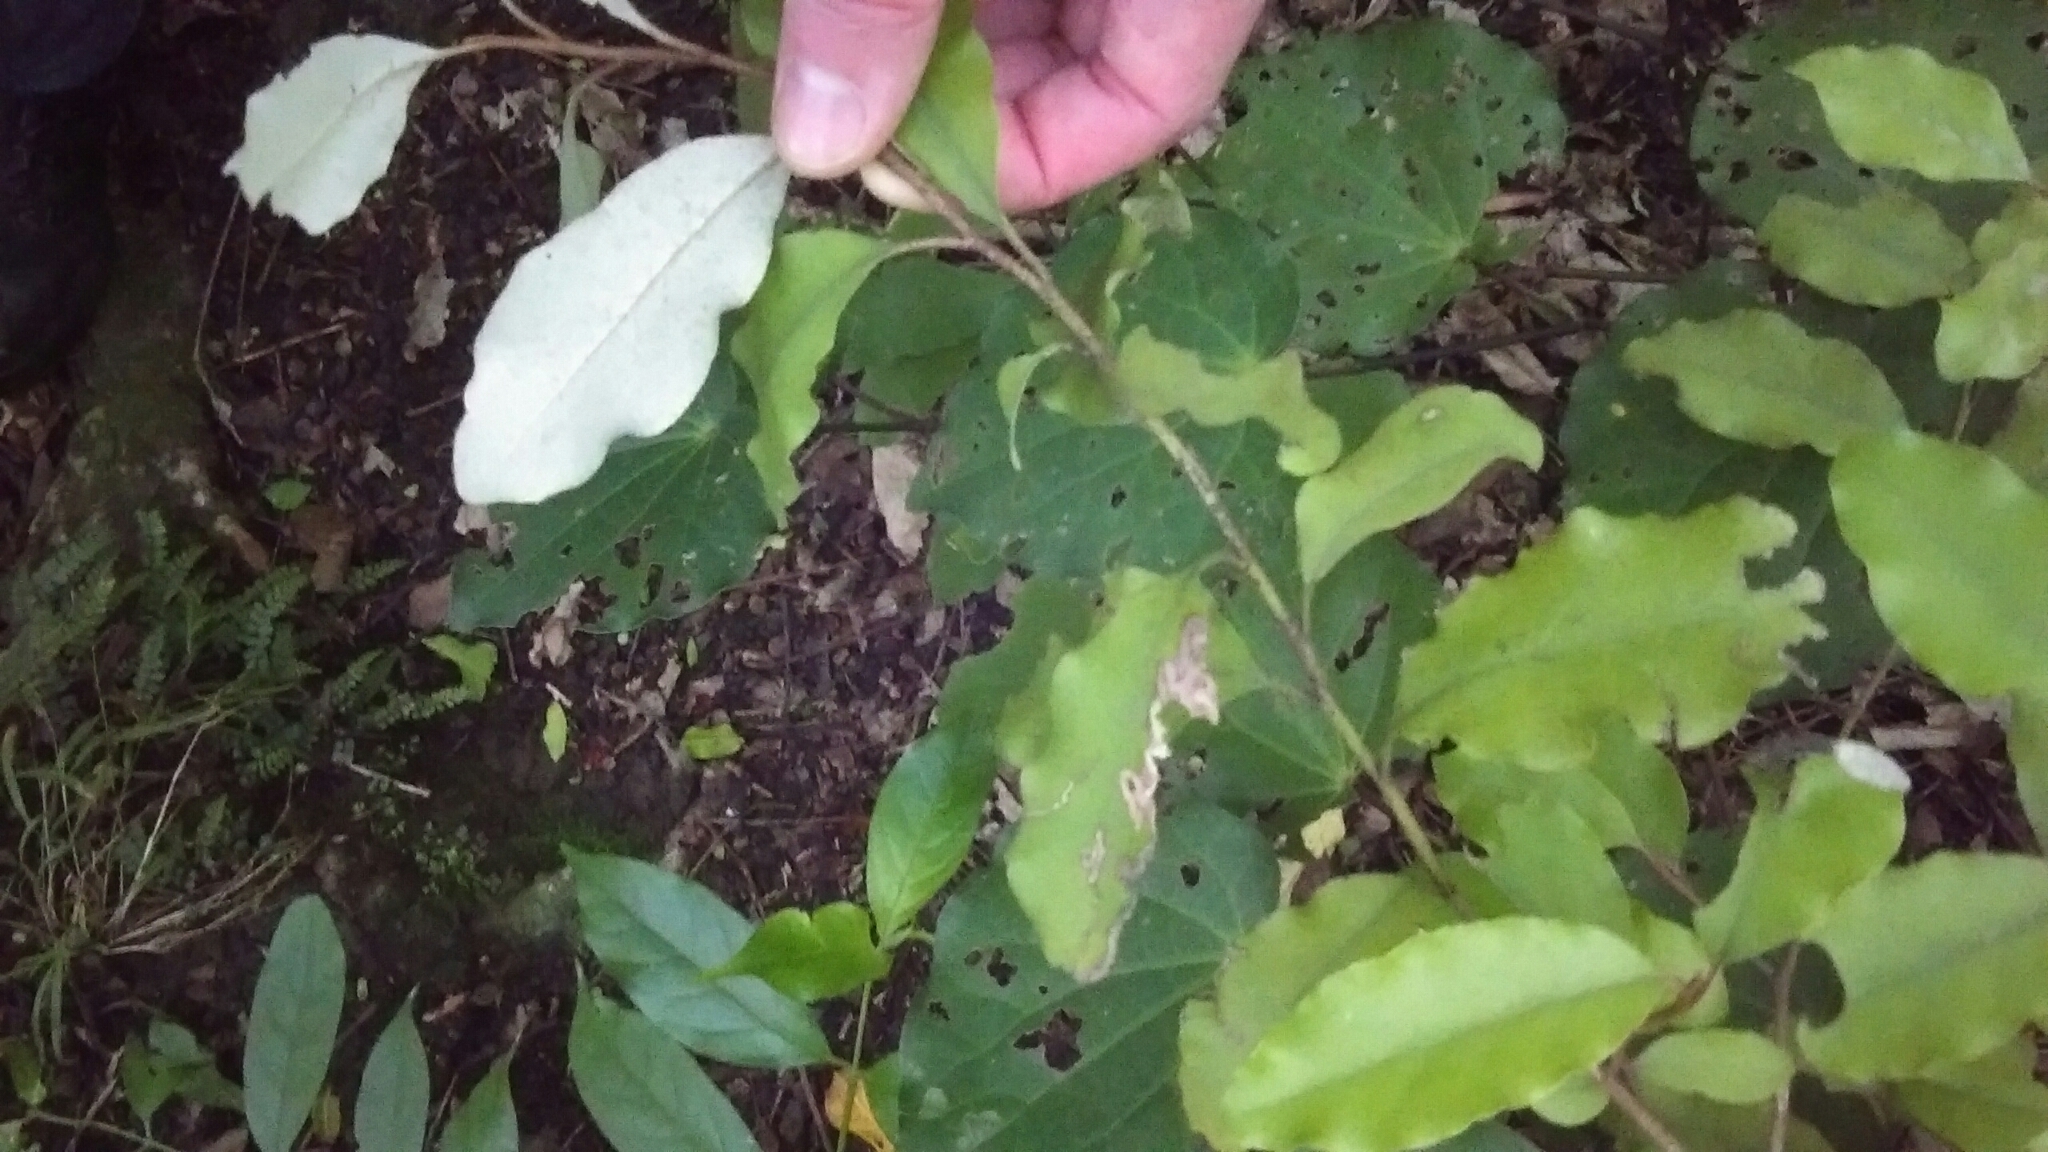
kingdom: Plantae
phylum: Tracheophyta
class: Magnoliopsida
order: Asterales
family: Asteraceae
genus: Olearia
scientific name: Olearia paniculata
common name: Akiraho
